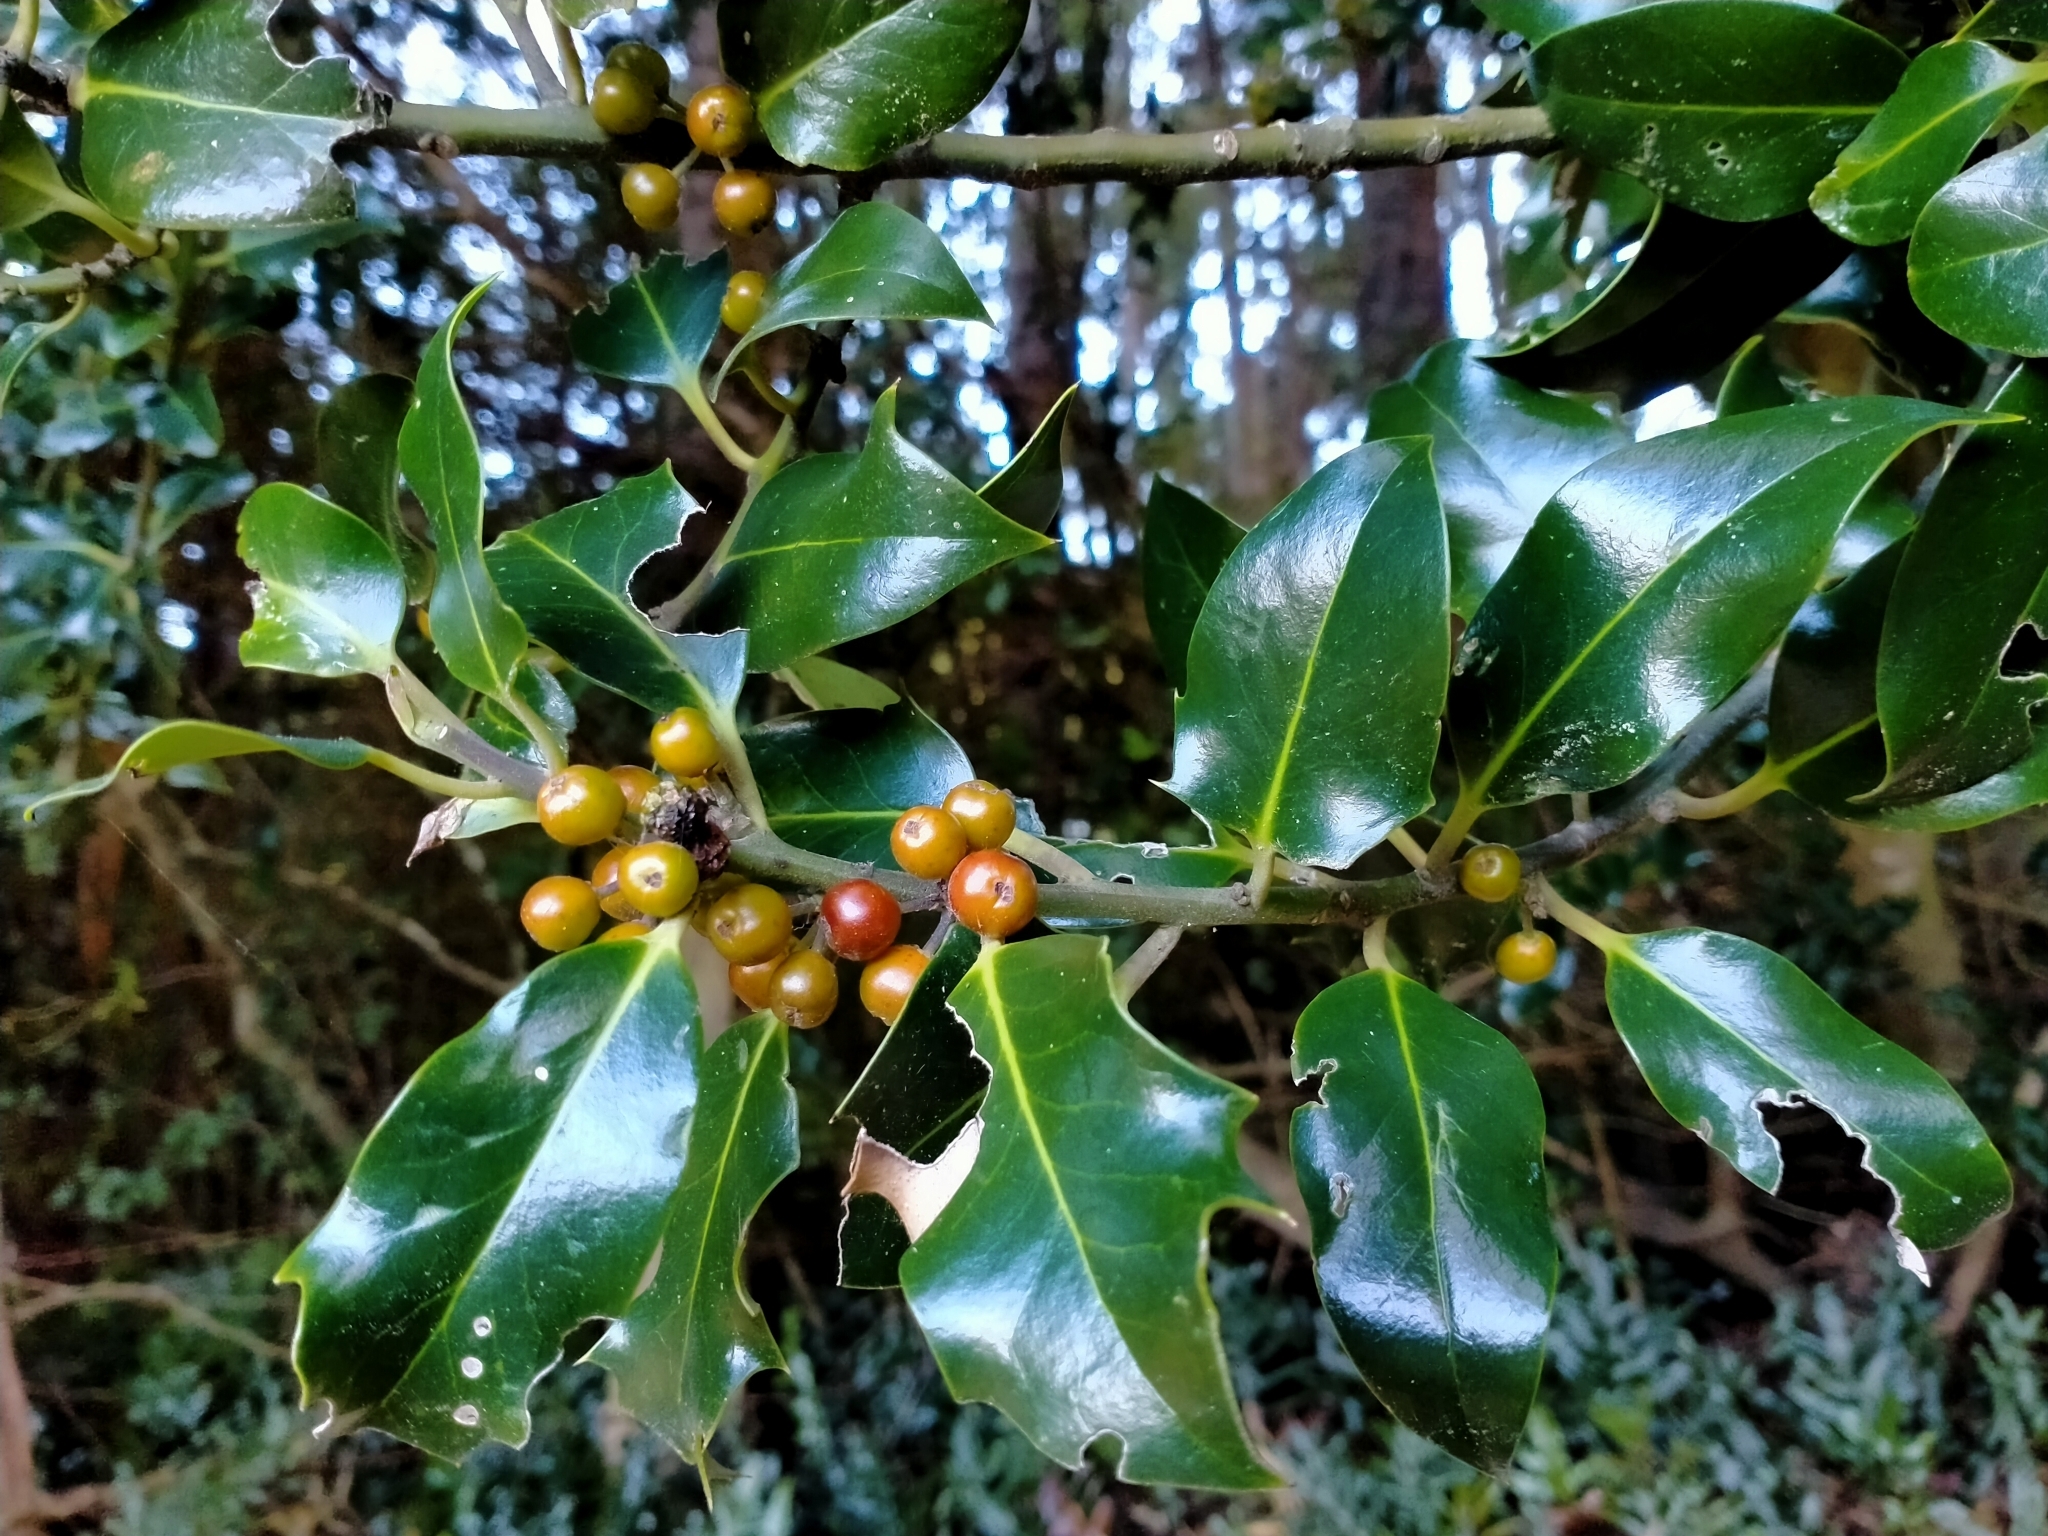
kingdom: Plantae
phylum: Tracheophyta
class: Magnoliopsida
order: Aquifoliales
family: Aquifoliaceae
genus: Ilex
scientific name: Ilex aquifolium
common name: English holly
